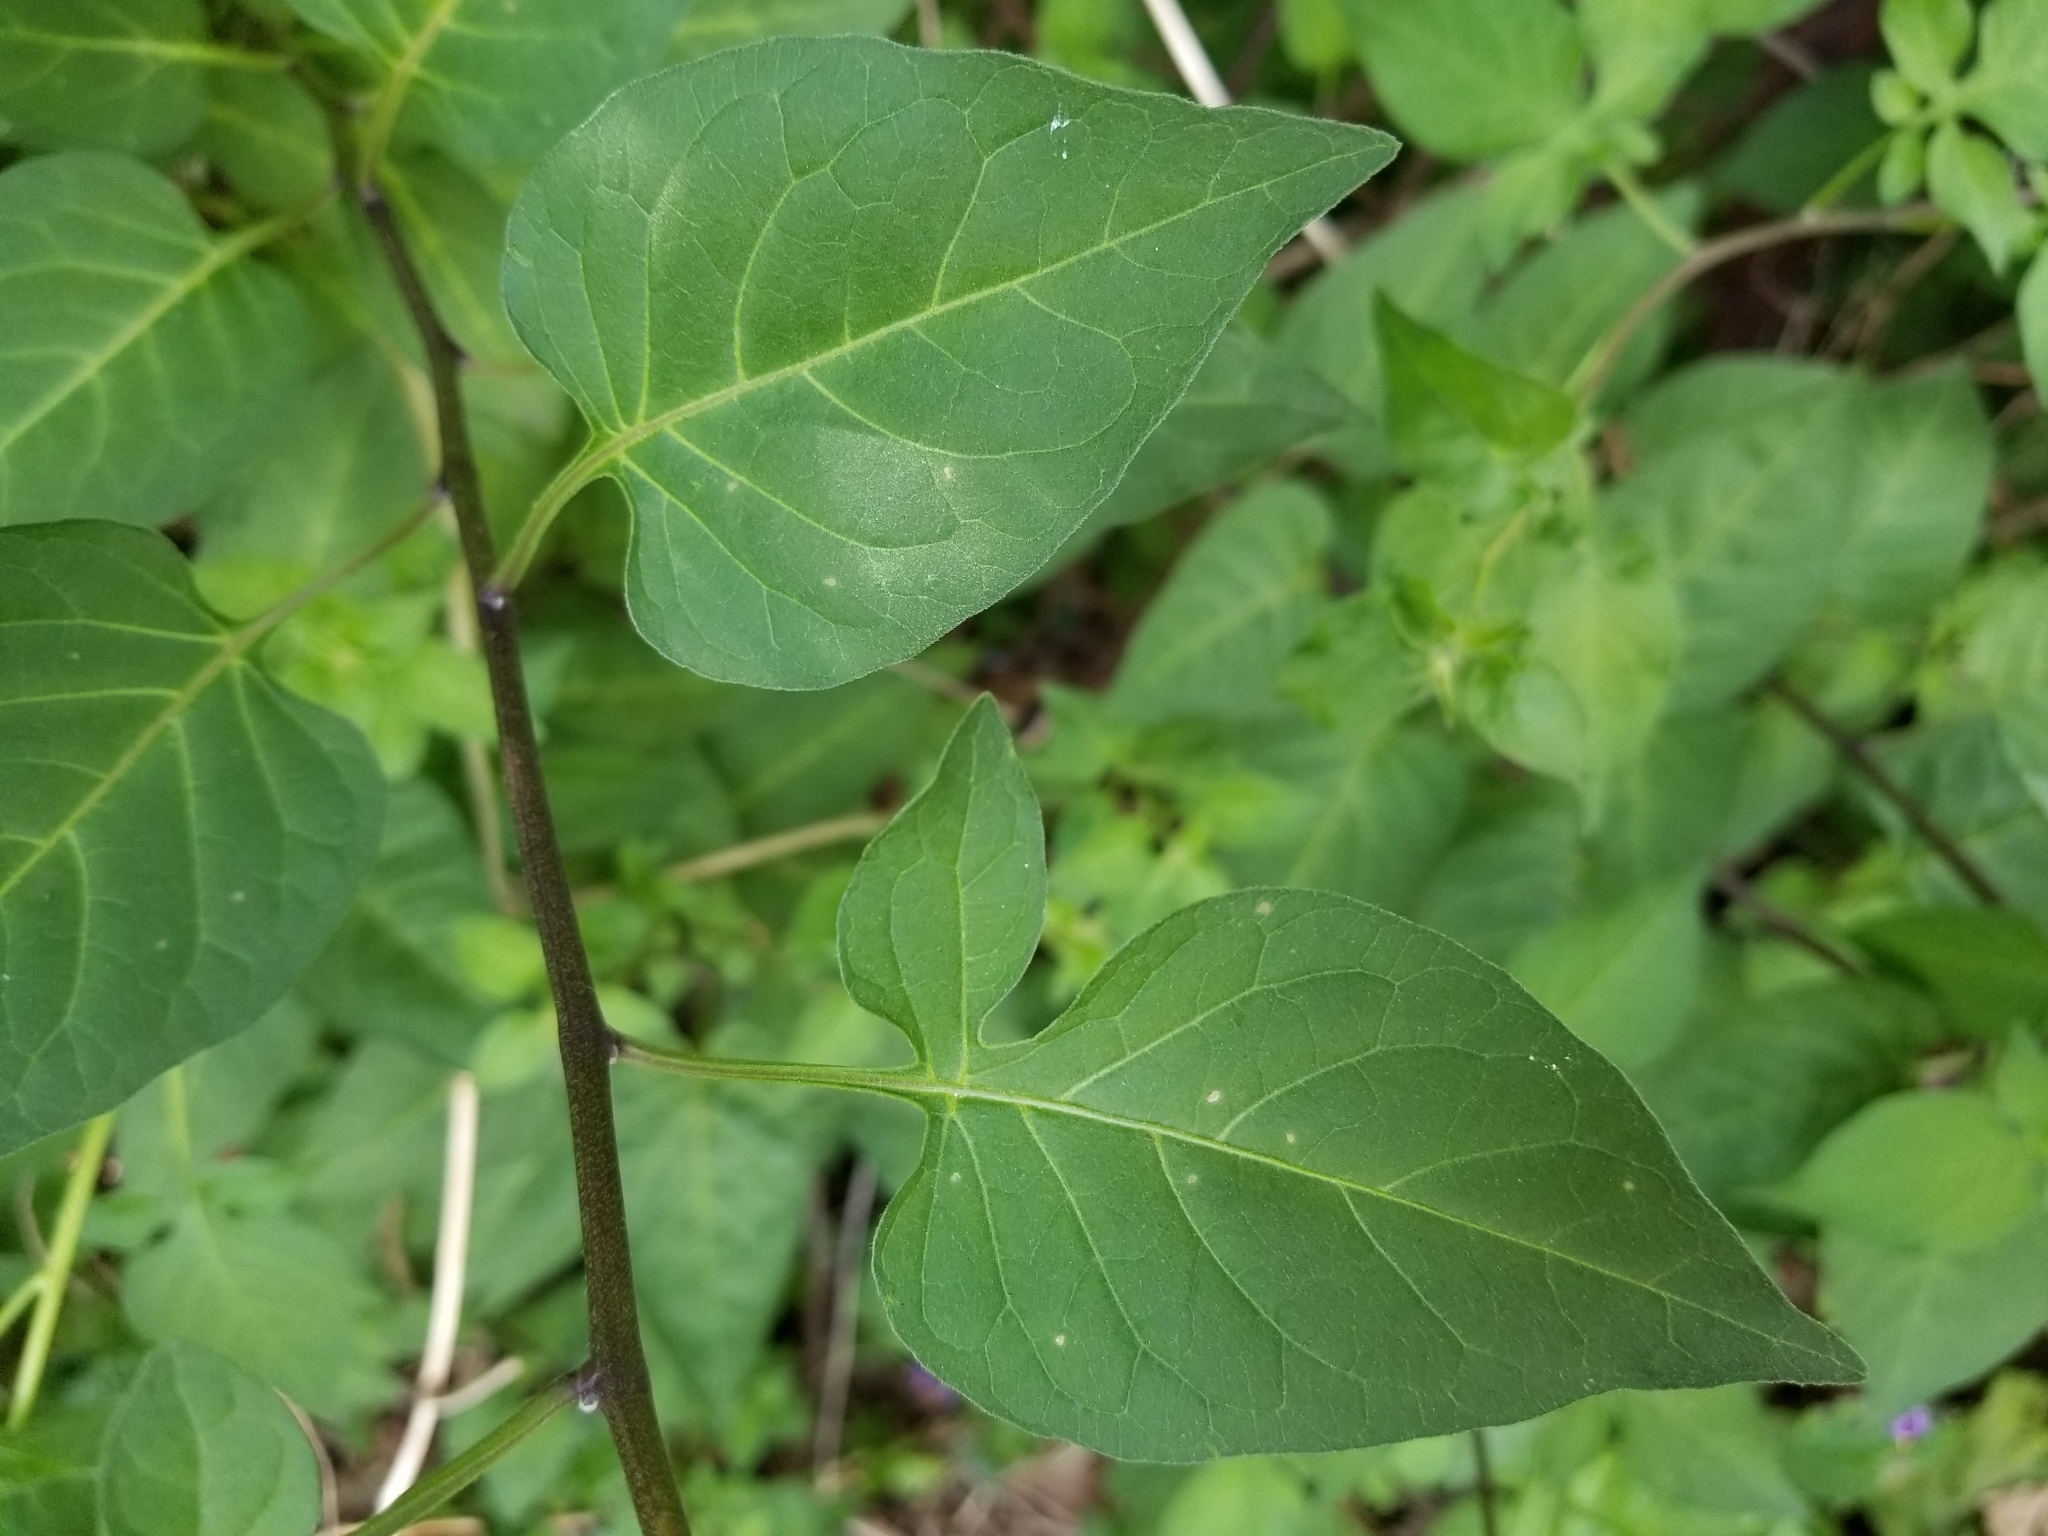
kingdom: Plantae
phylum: Tracheophyta
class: Magnoliopsida
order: Solanales
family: Solanaceae
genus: Solanum
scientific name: Solanum dulcamara
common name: Climbing nightshade
